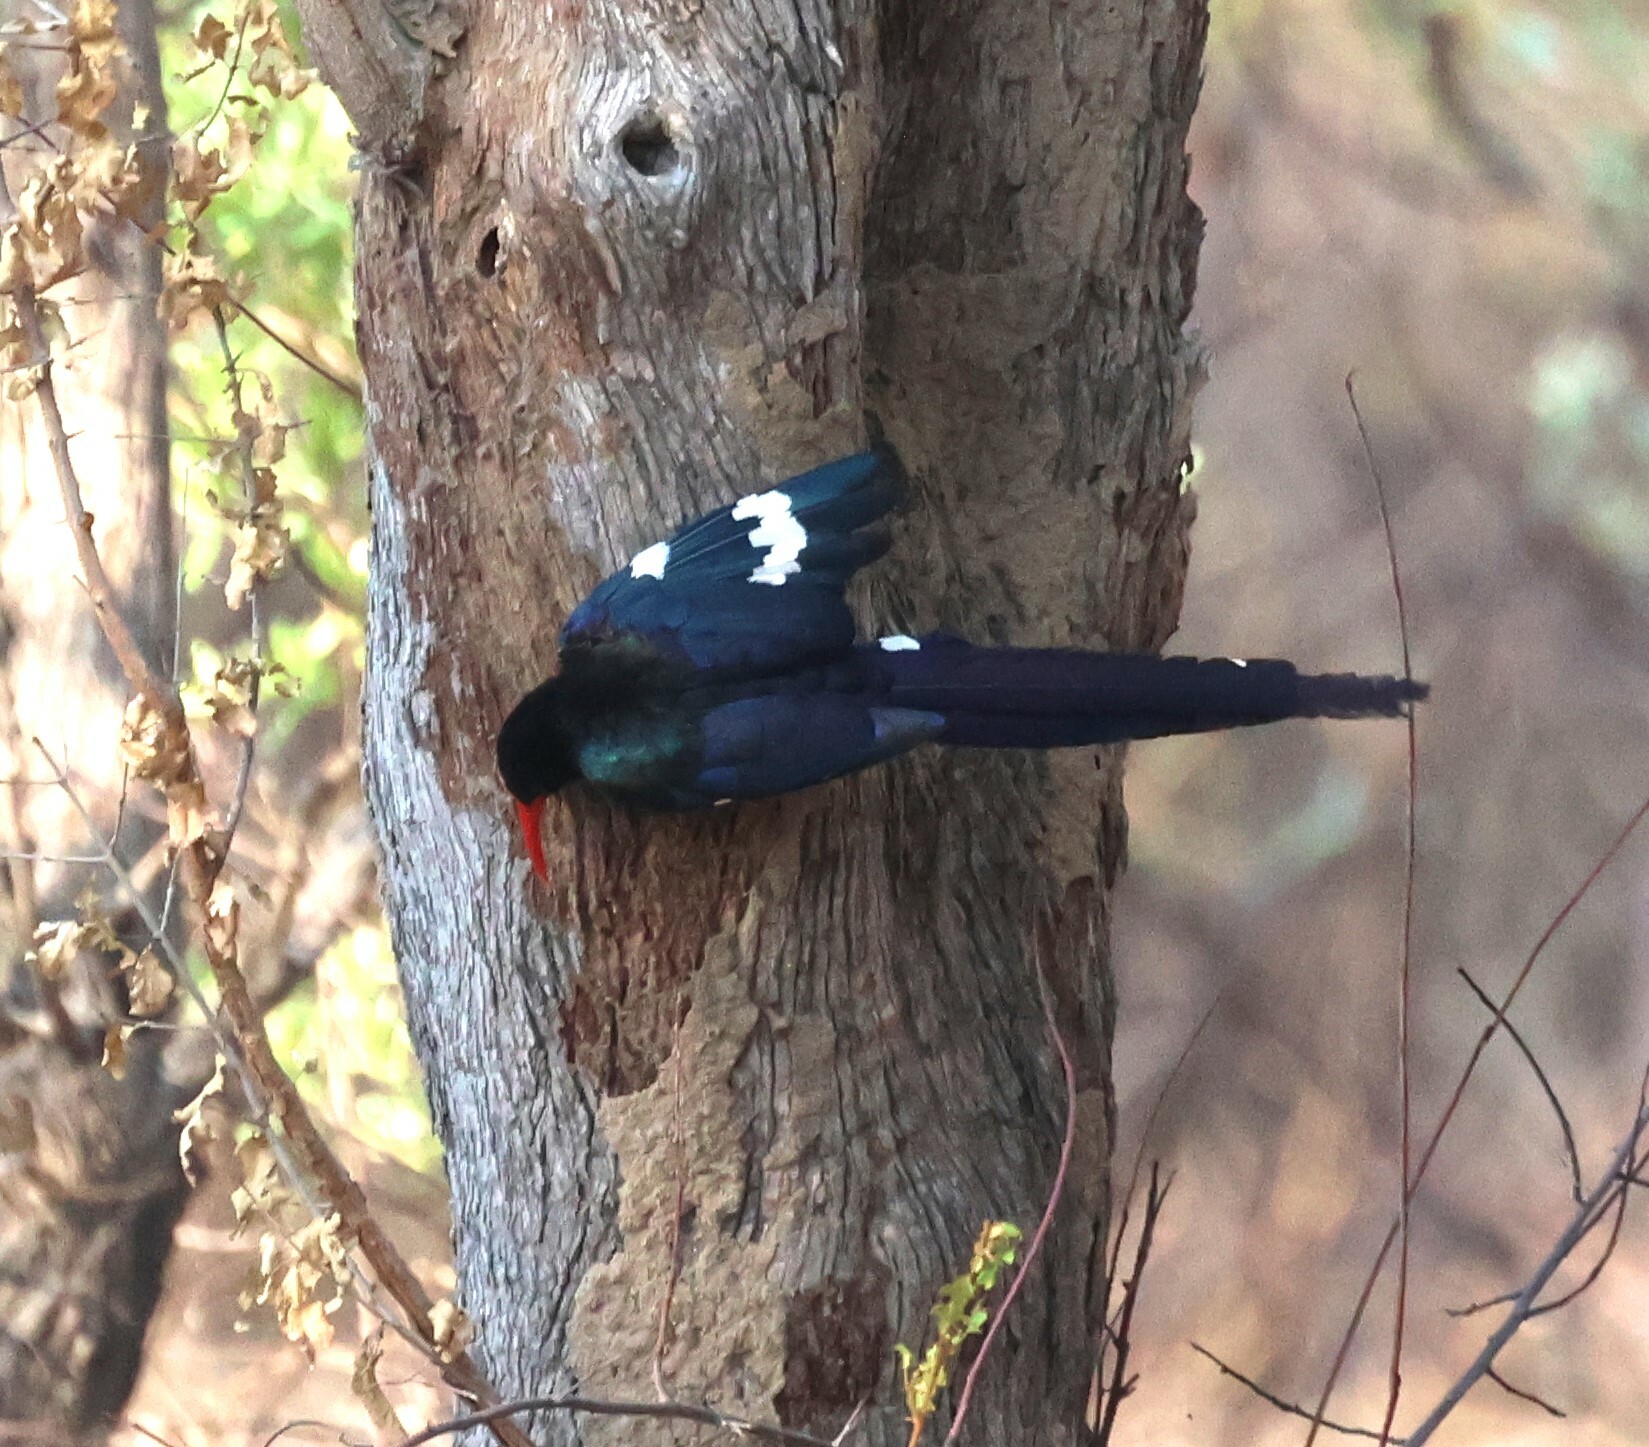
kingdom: Animalia
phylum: Chordata
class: Aves
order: Bucerotiformes
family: Phoeniculidae
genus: Phoeniculus
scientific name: Phoeniculus purpureus
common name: Green woodhoopoe
